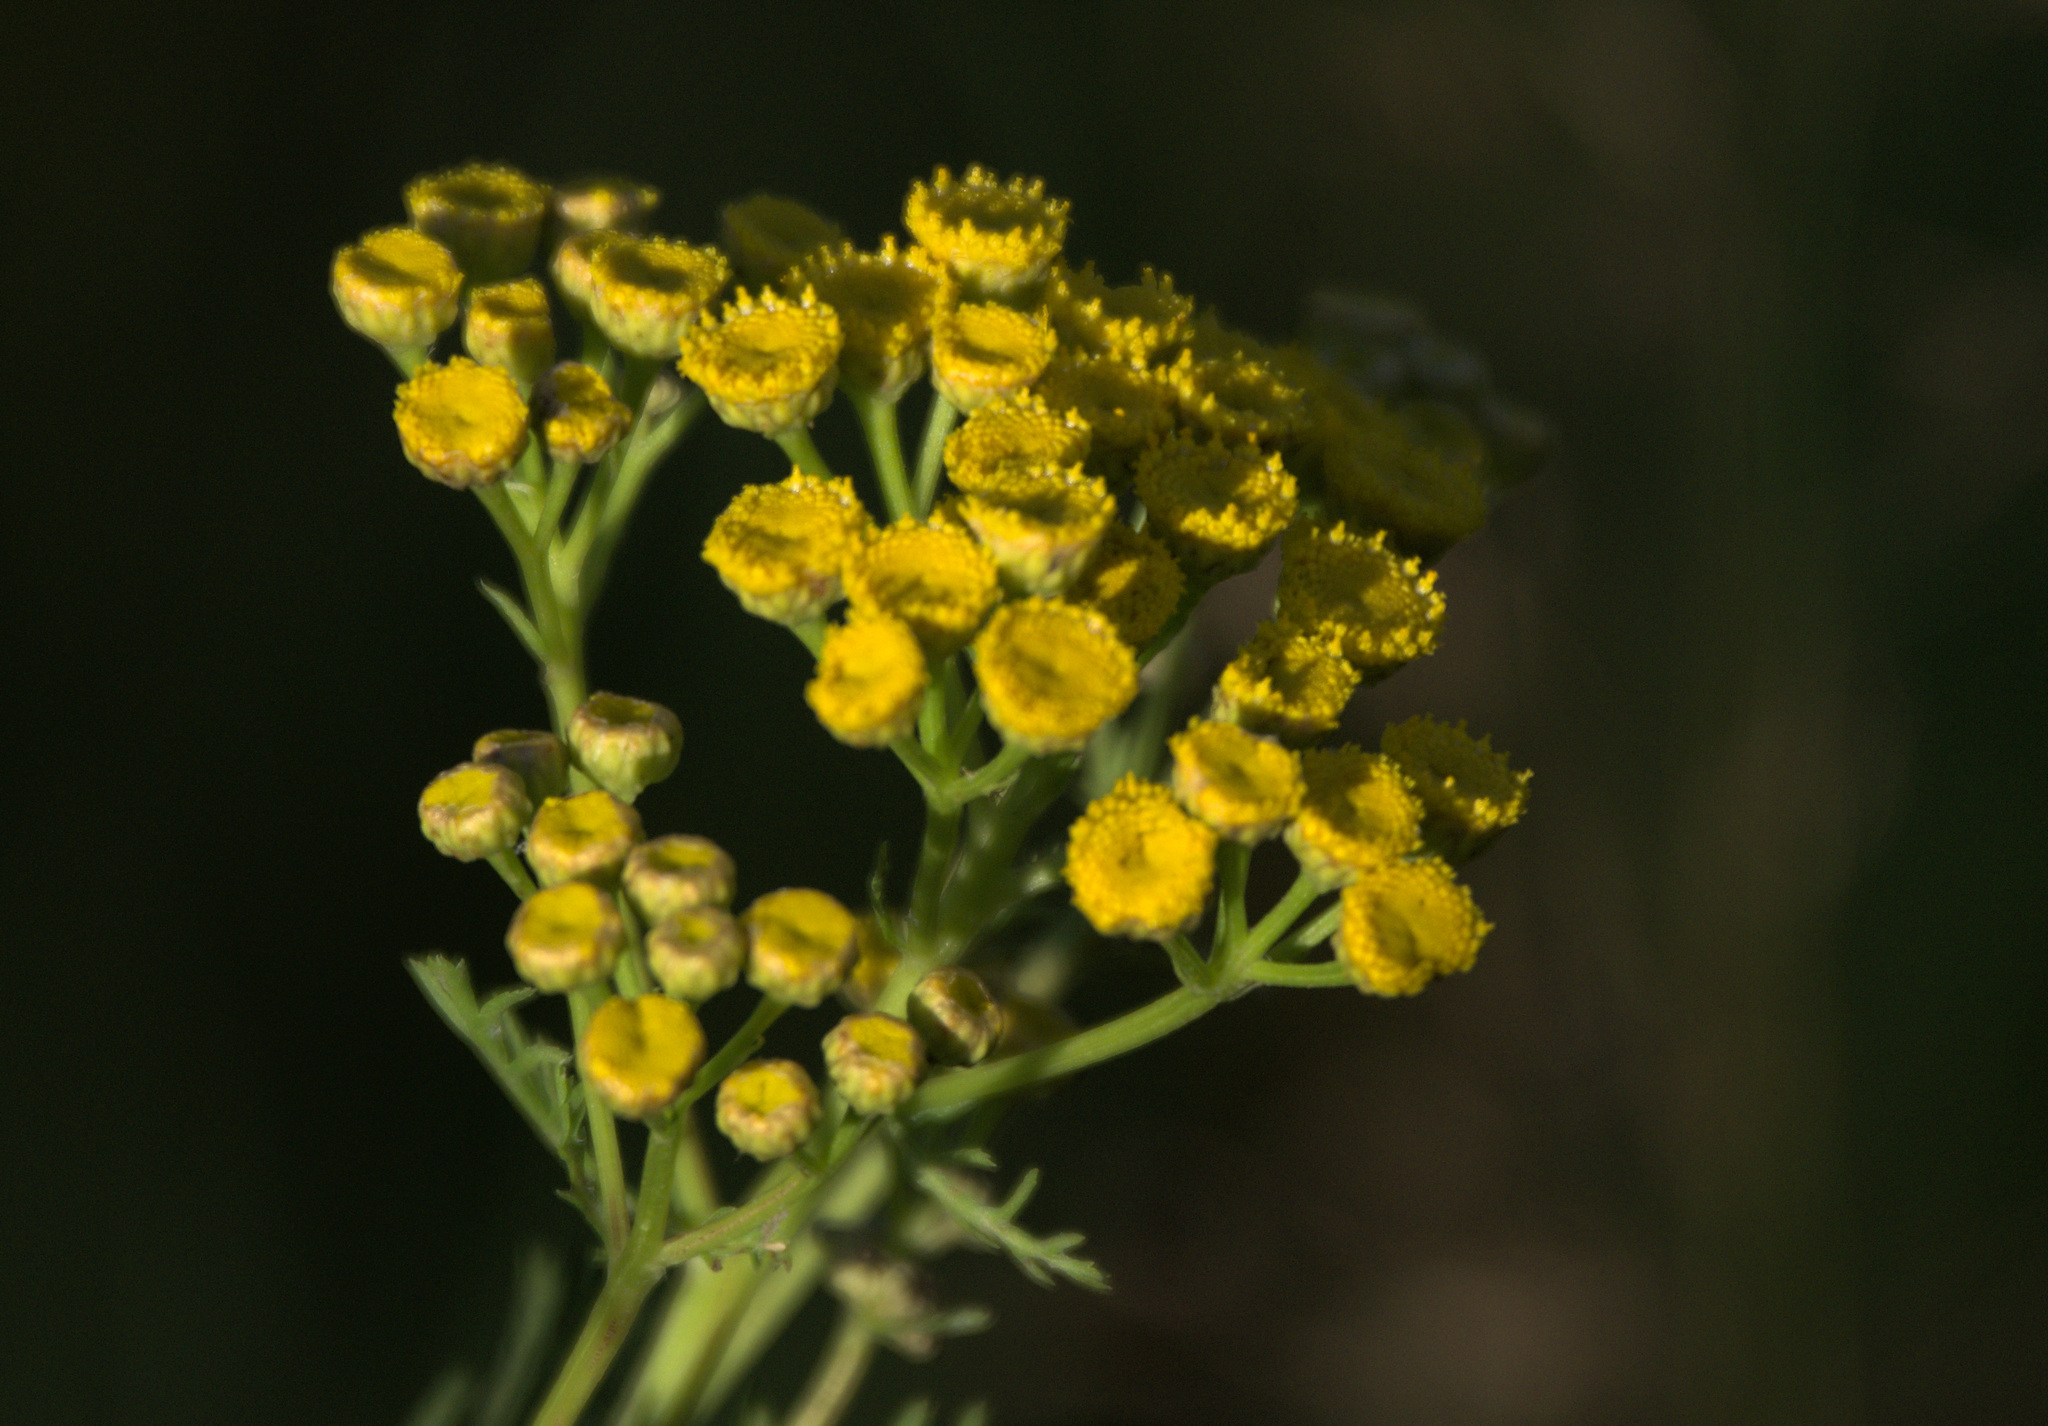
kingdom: Plantae
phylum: Tracheophyta
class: Magnoliopsida
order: Asterales
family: Asteraceae
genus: Tanacetum
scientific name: Tanacetum vulgare
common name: Common tansy
